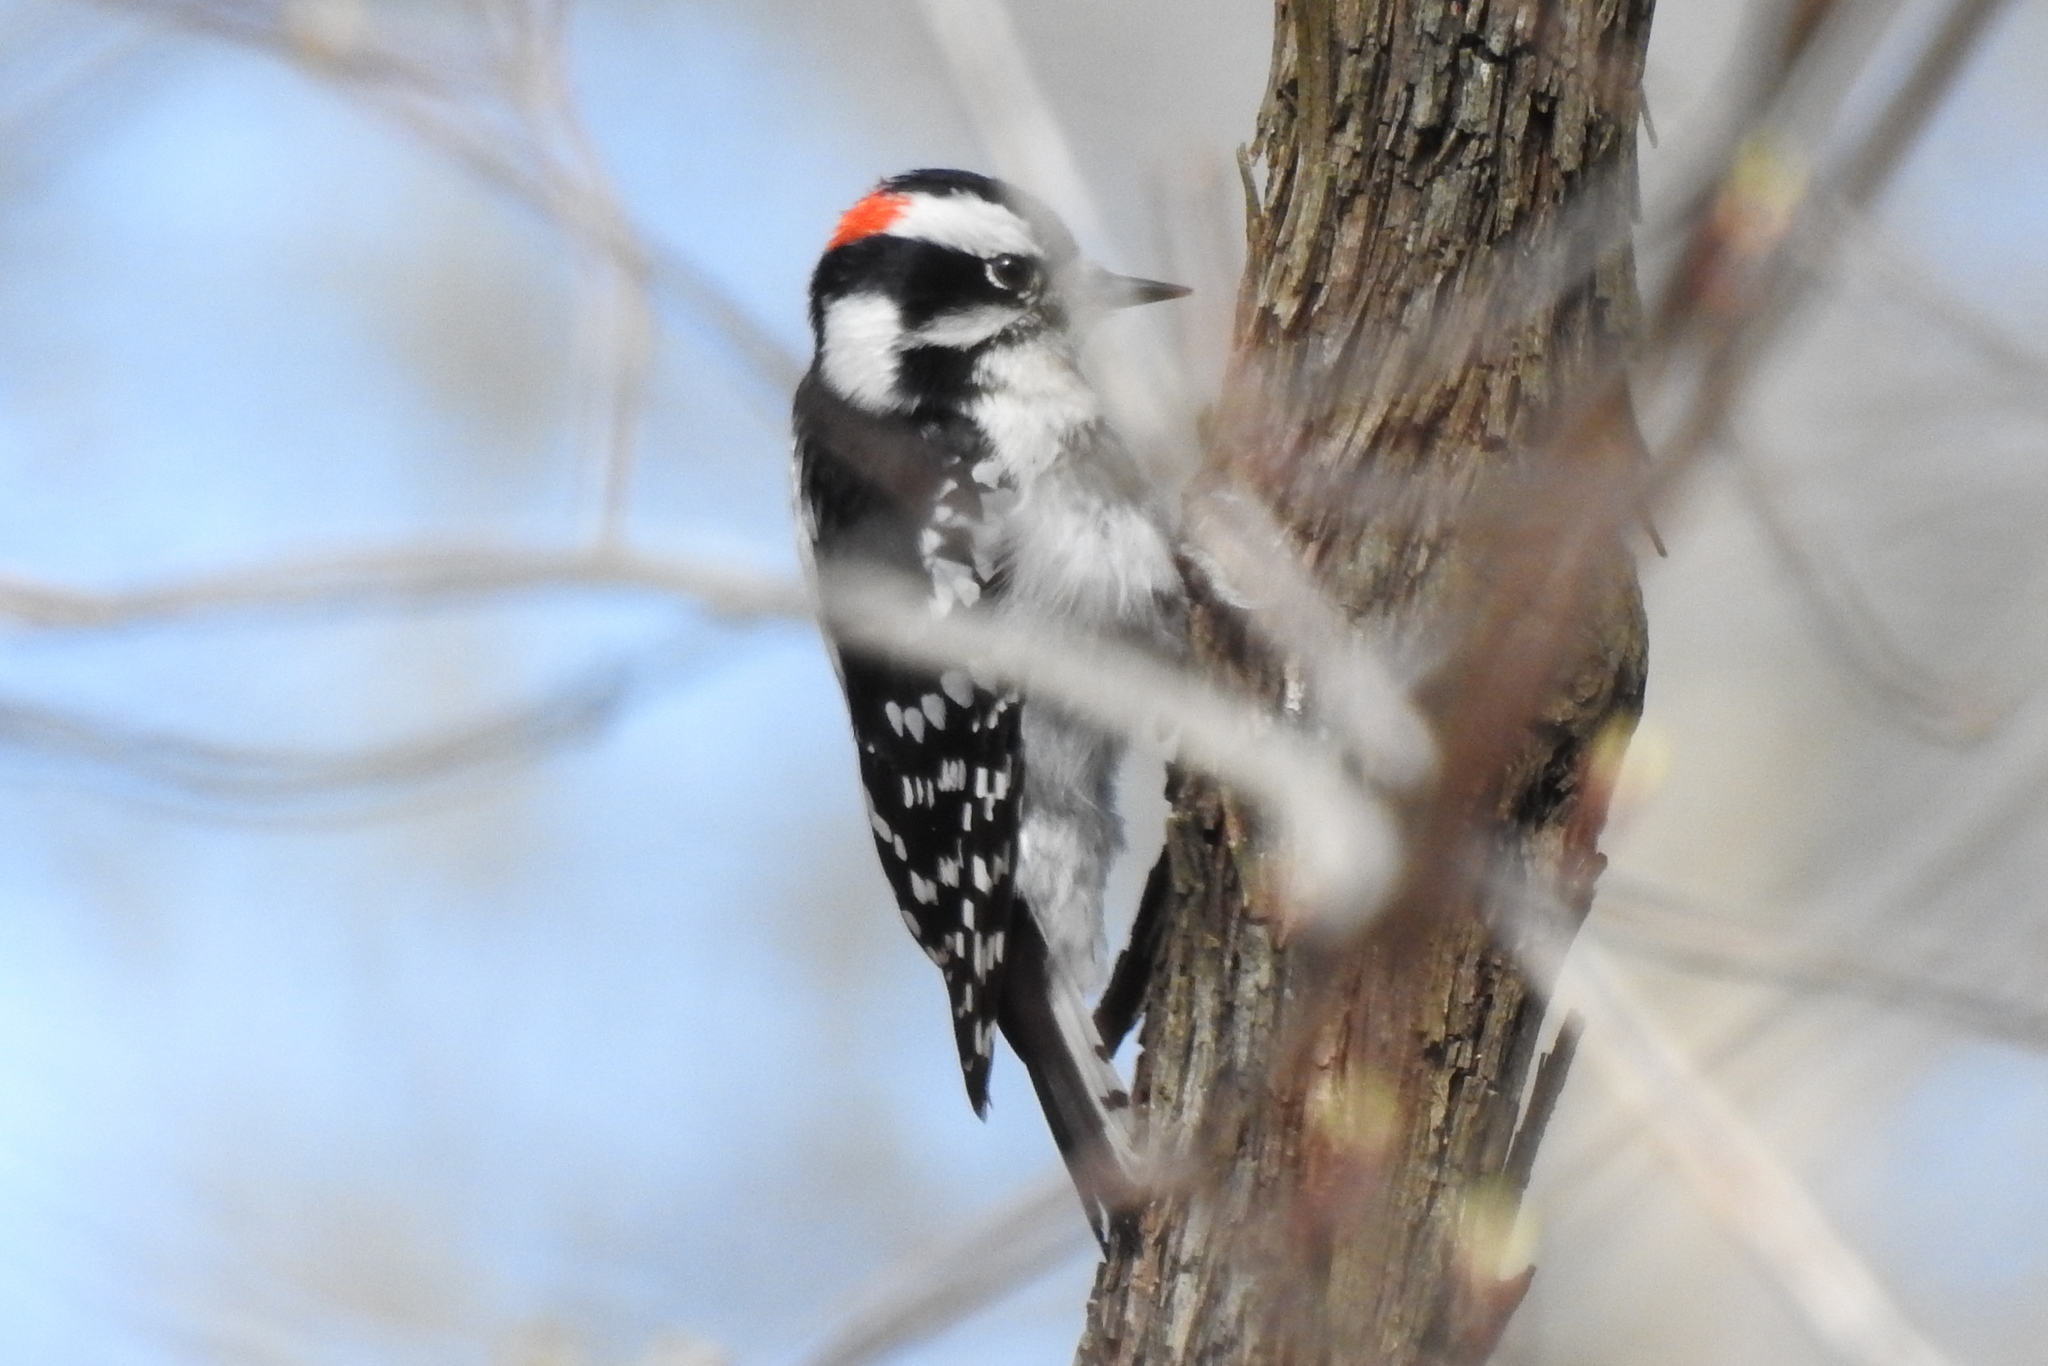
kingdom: Animalia
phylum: Chordata
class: Aves
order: Piciformes
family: Picidae
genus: Dryobates
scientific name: Dryobates pubescens
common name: Downy woodpecker
